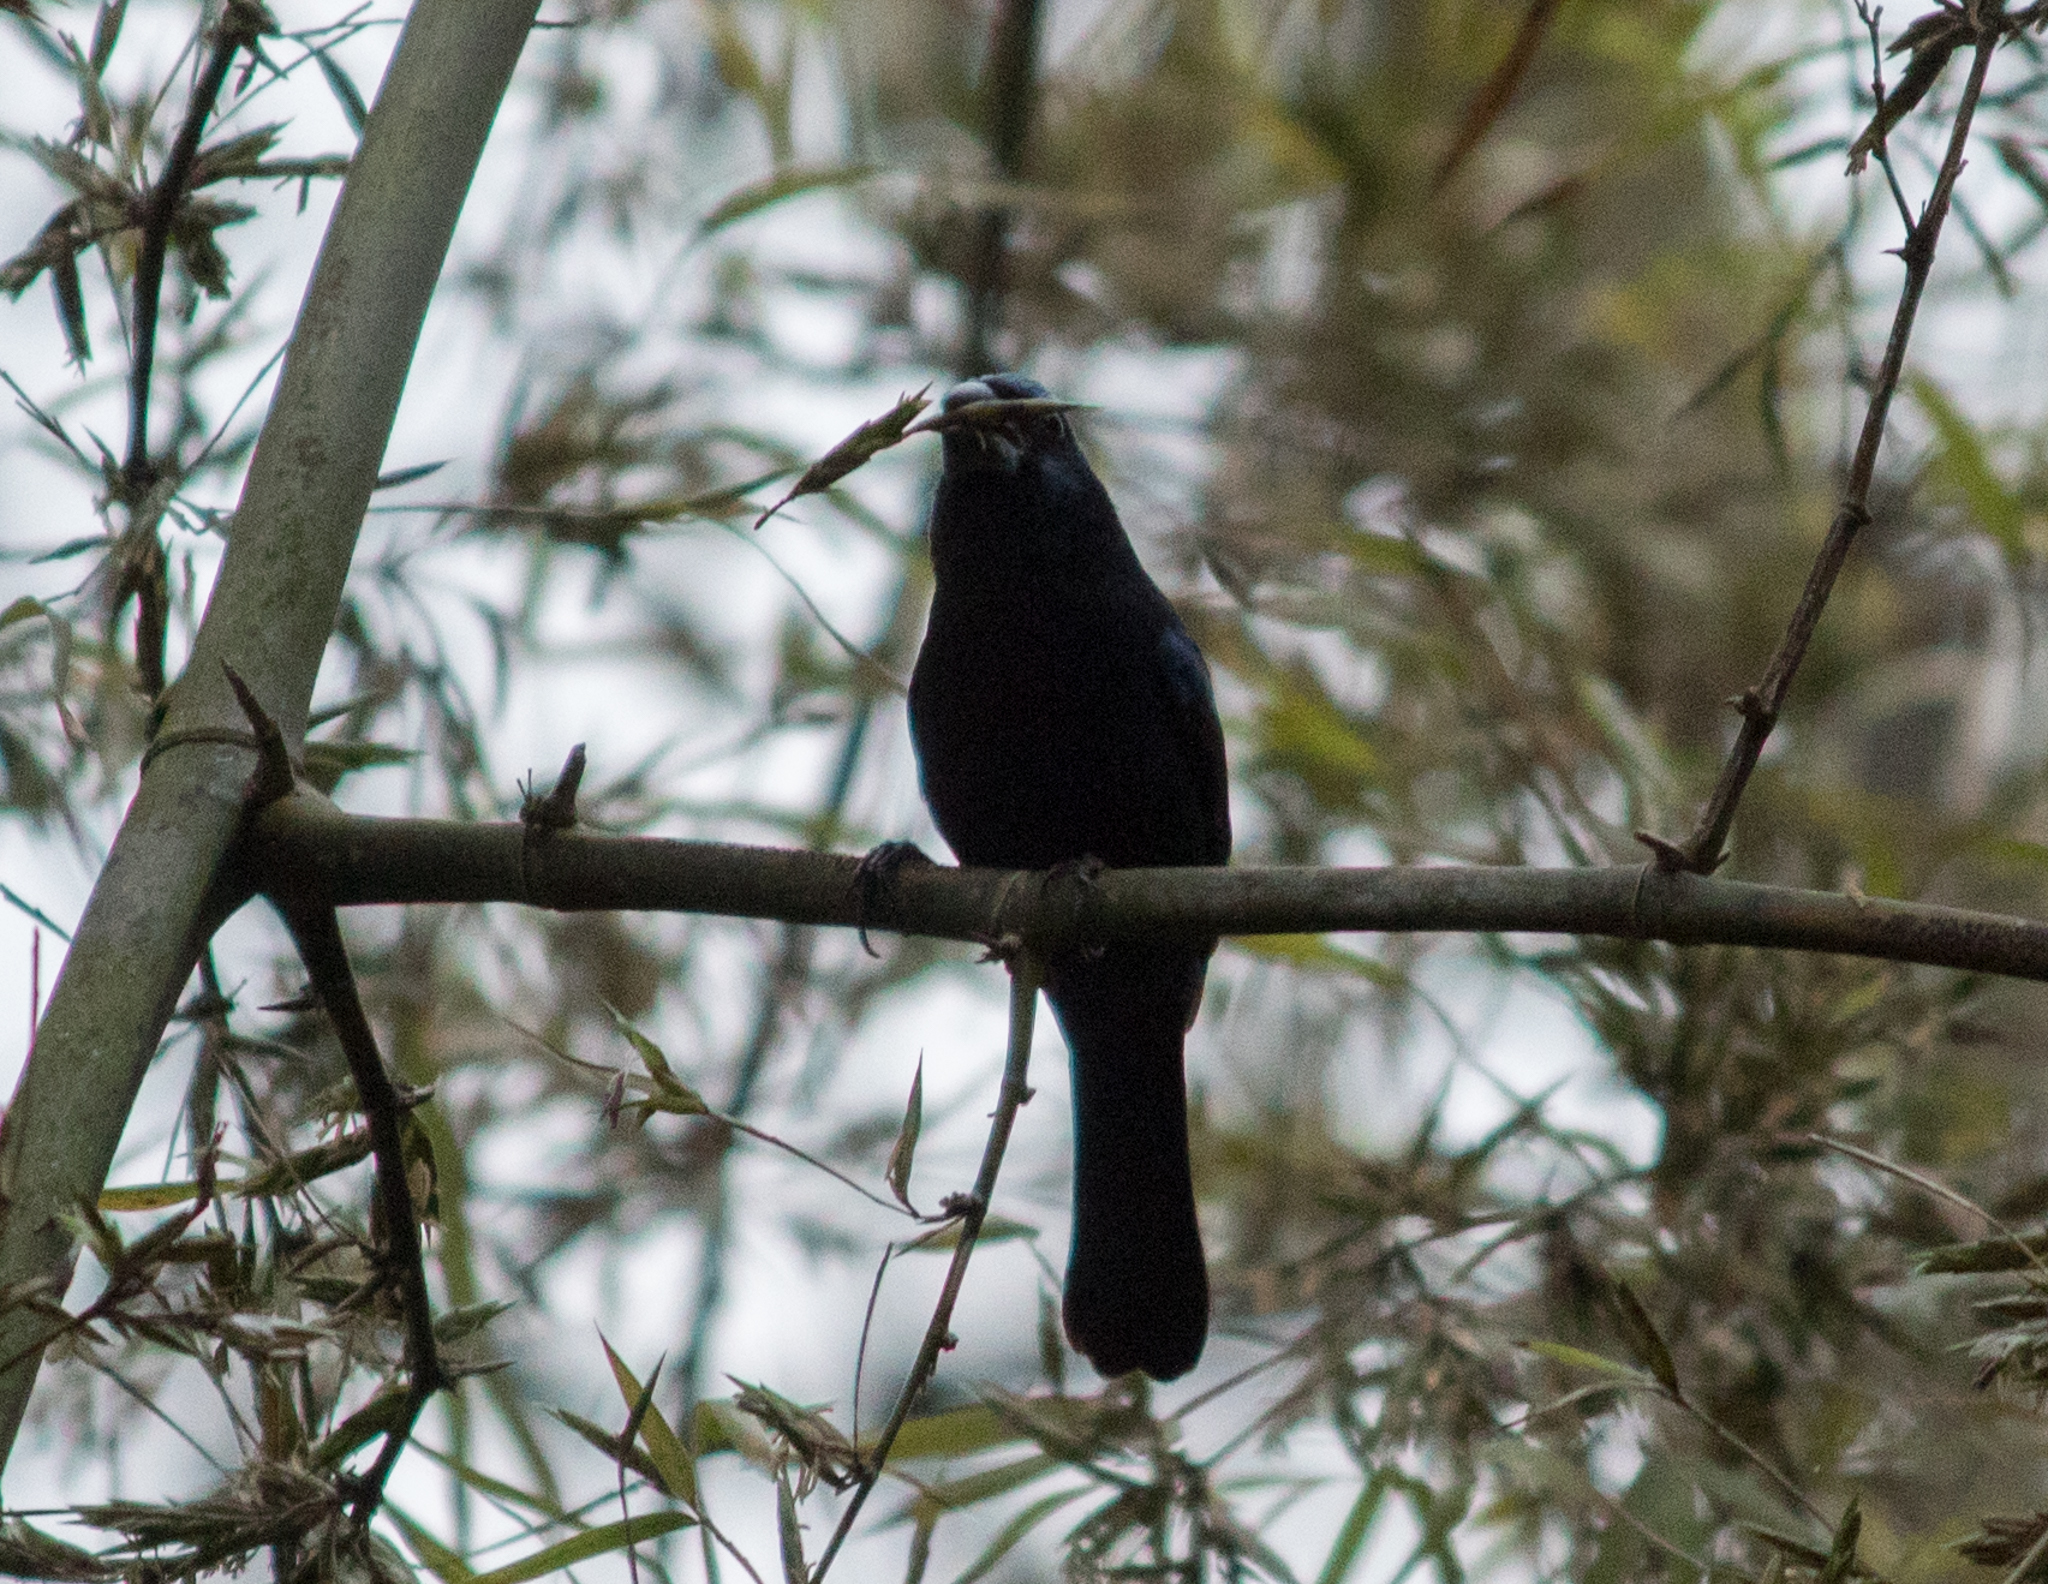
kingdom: Animalia
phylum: Chordata
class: Aves
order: Passeriformes
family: Cardinalidae
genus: Cyanoloxia
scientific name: Cyanoloxia brissonii
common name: Ultramarine grosbeak
